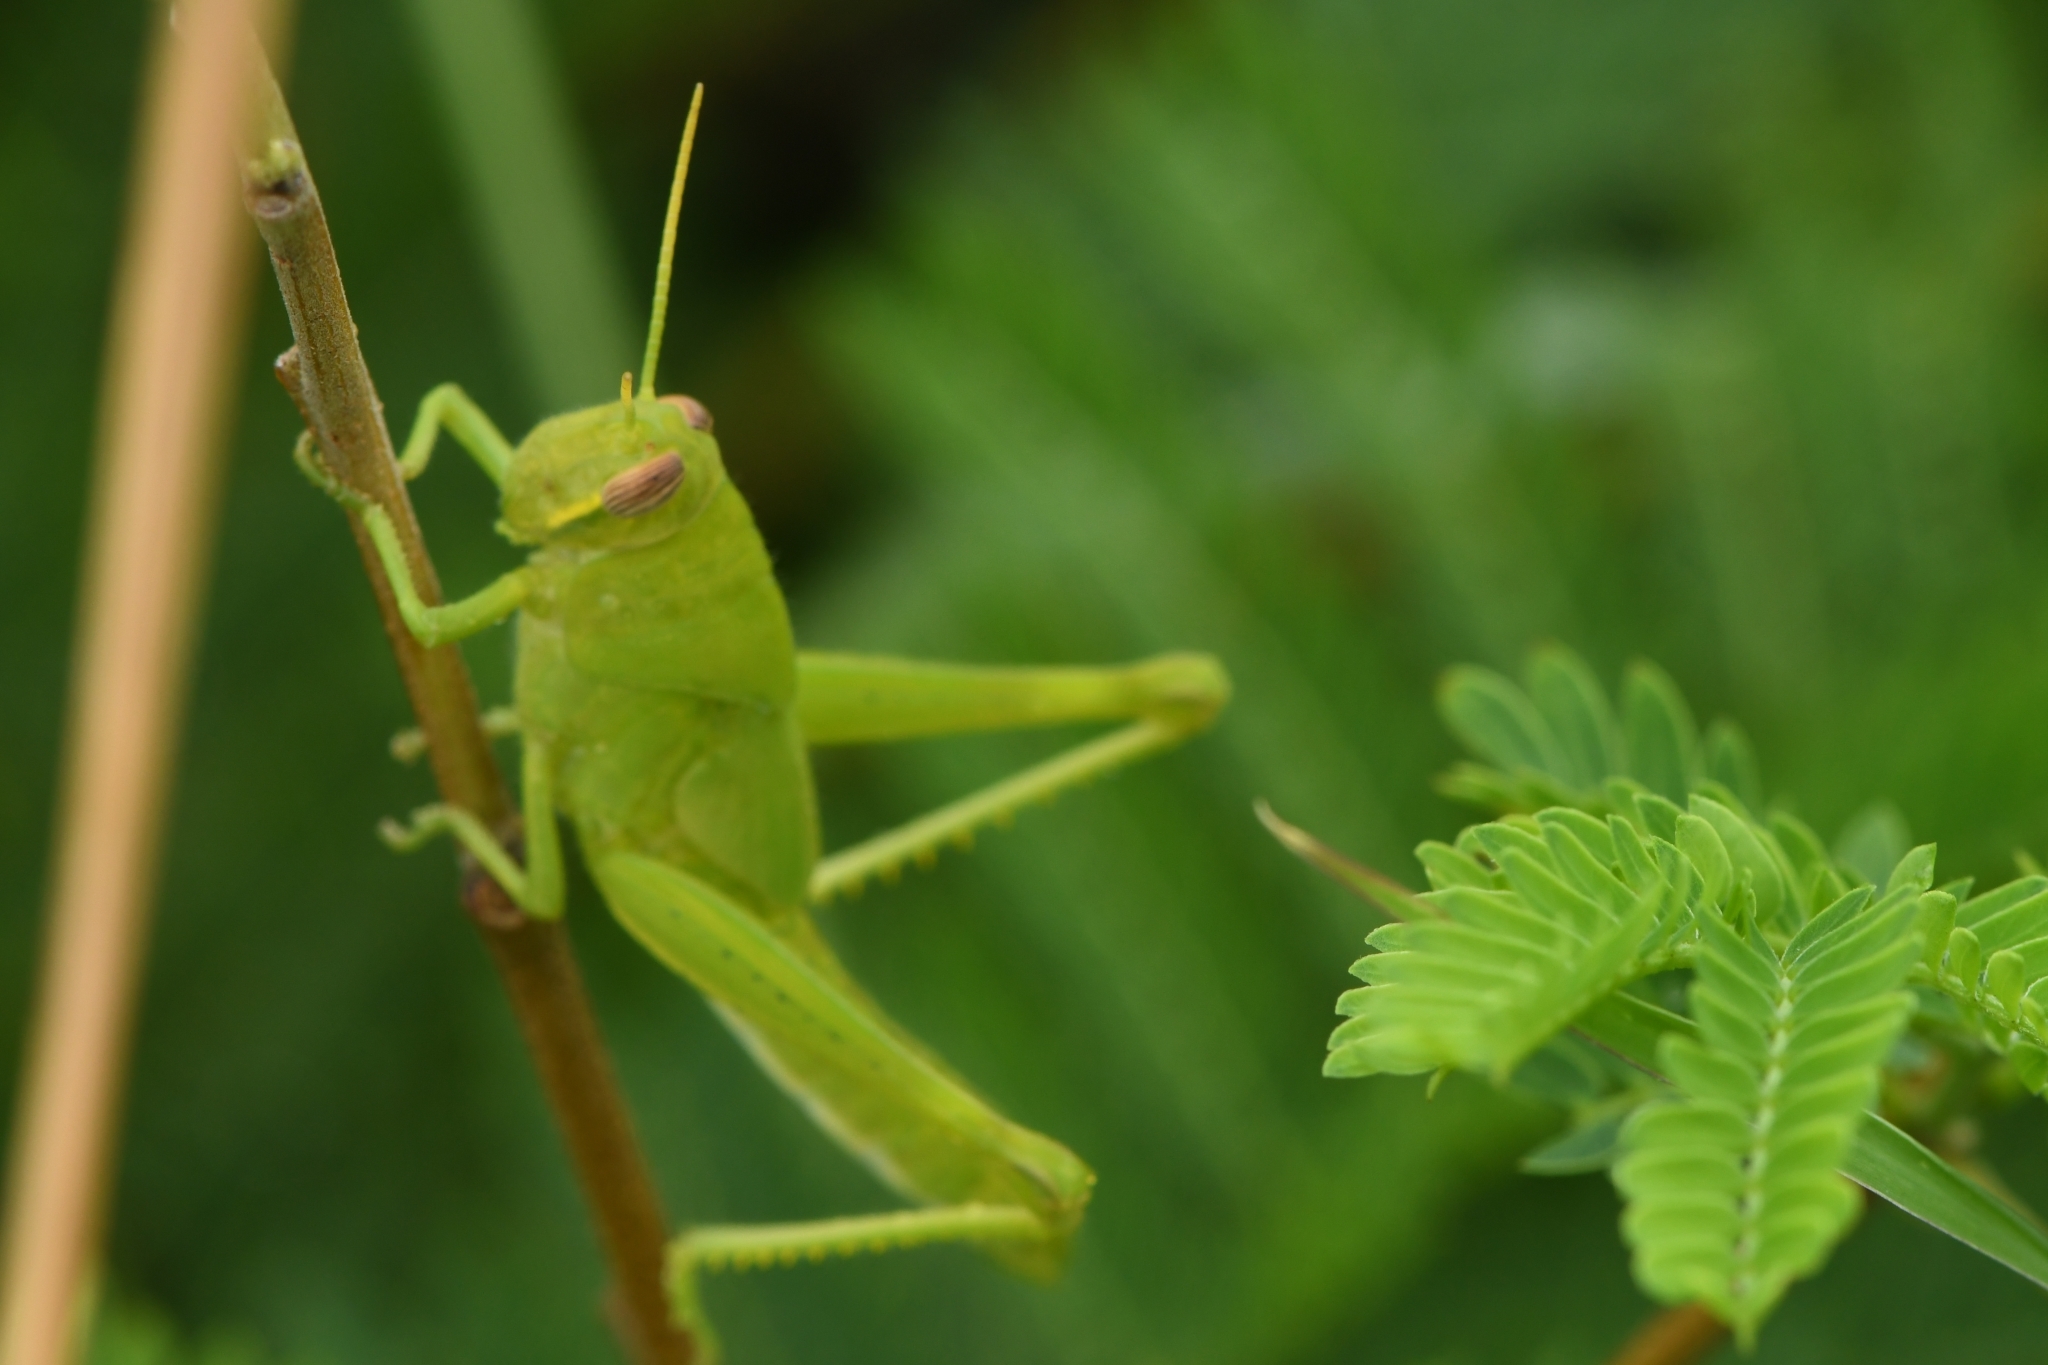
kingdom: Animalia
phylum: Arthropoda
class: Insecta
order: Orthoptera
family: Acrididae
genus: Schistocerca
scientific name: Schistocerca nitens
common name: Vagrant grasshopper
